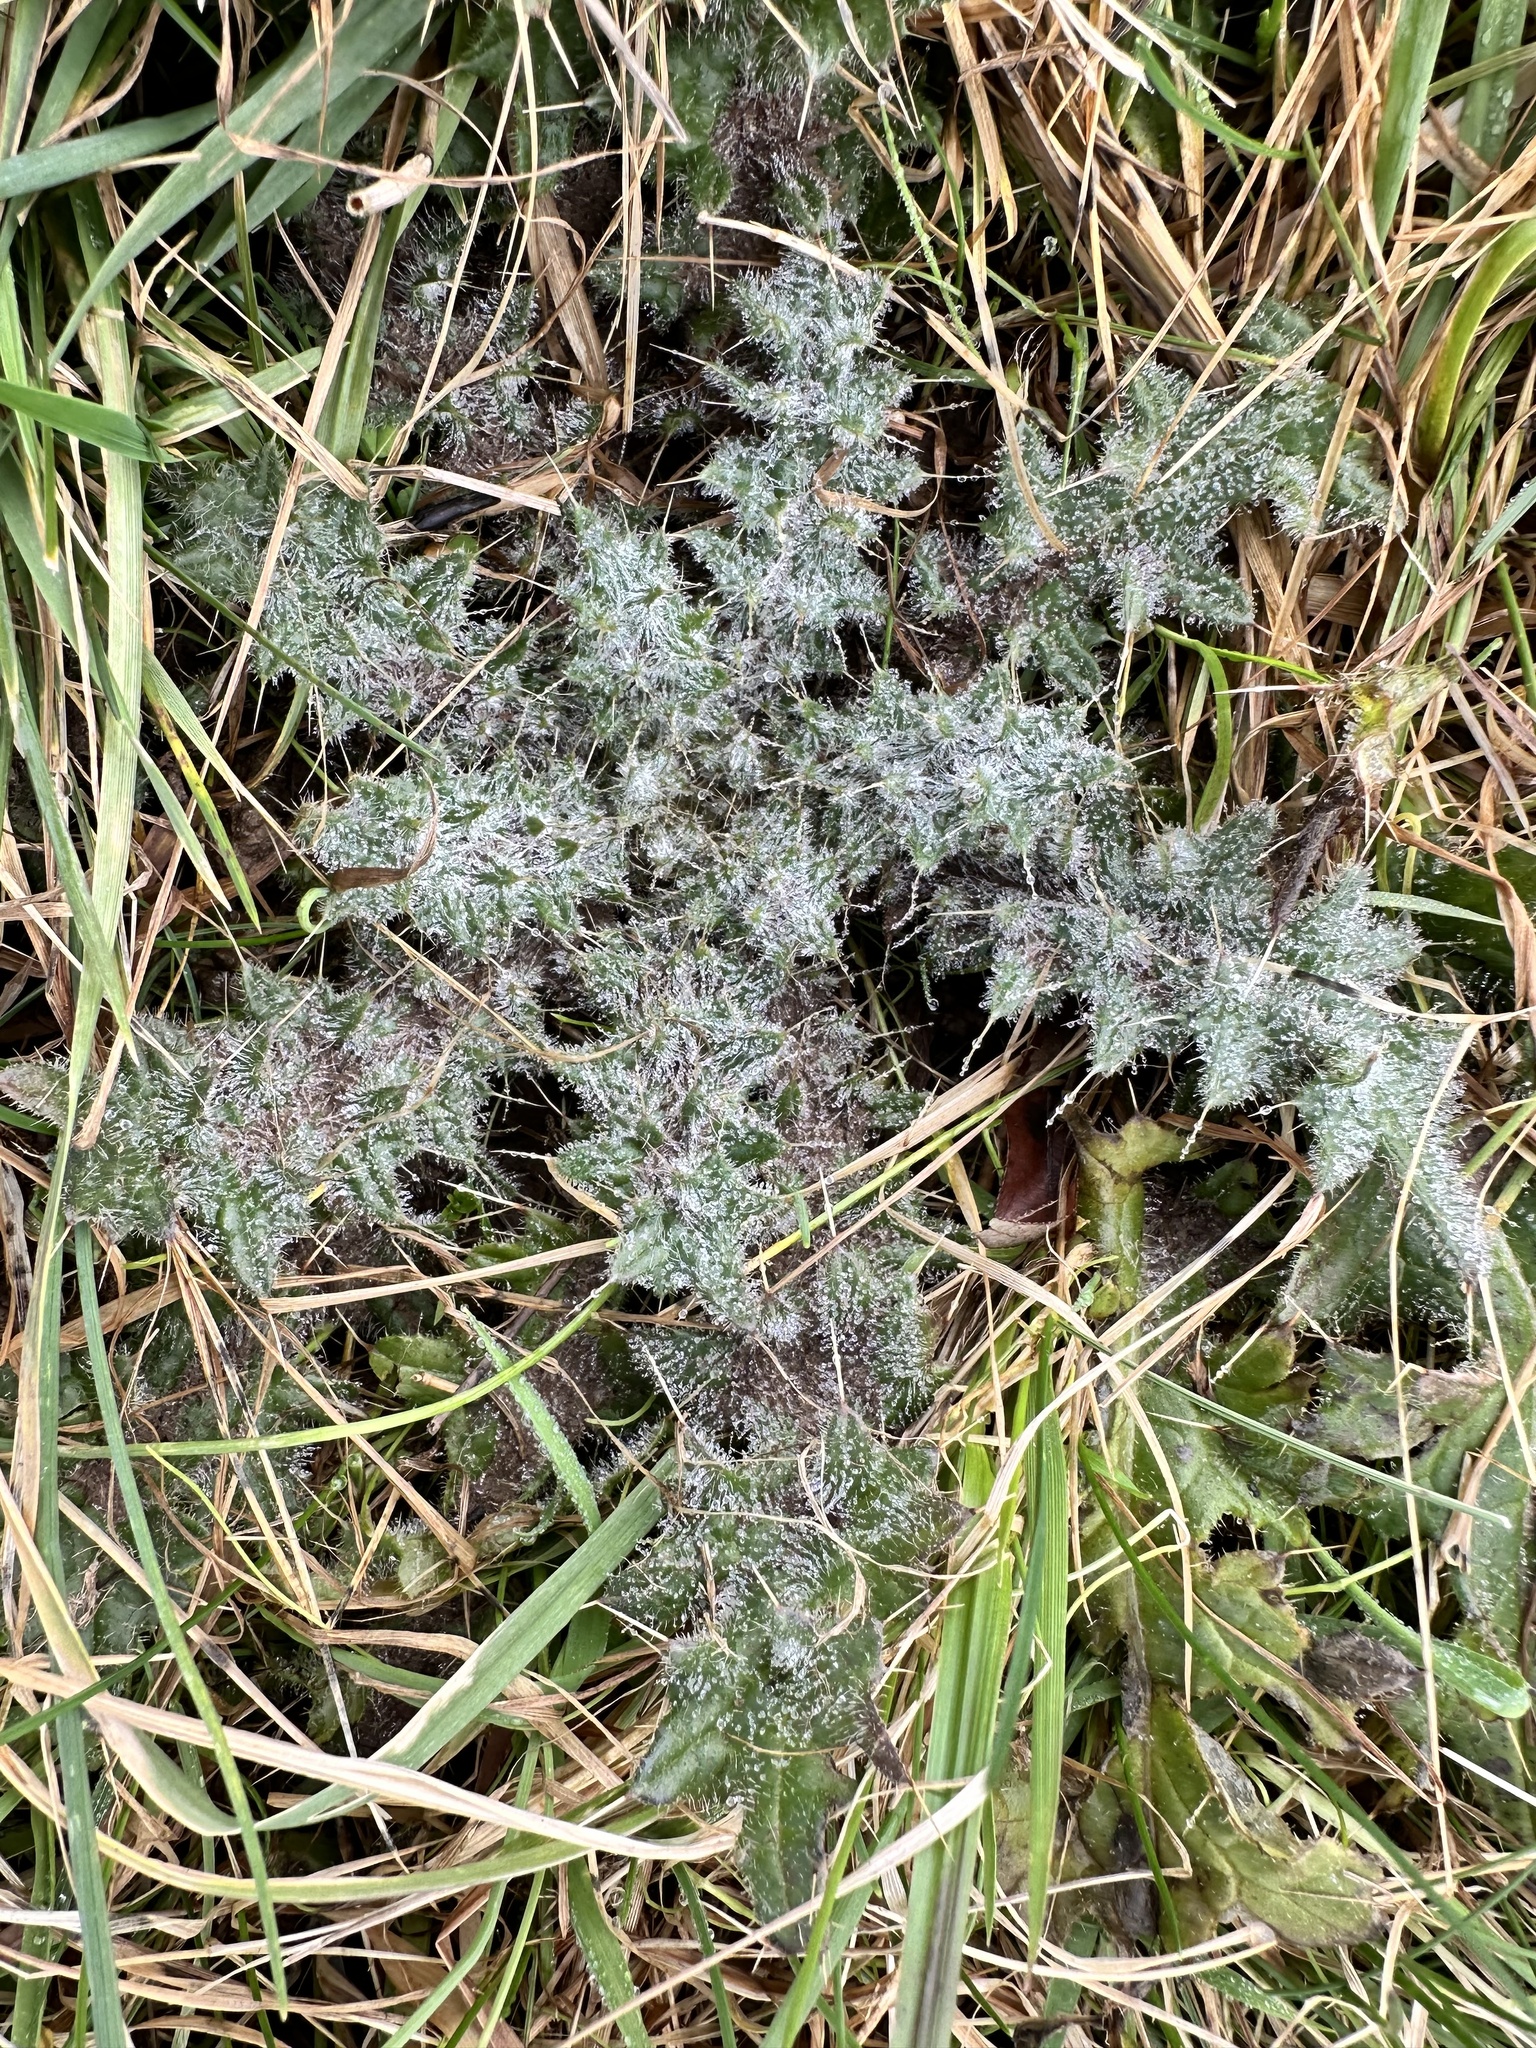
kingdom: Plantae
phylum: Tracheophyta
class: Magnoliopsida
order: Asterales
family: Asteraceae
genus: Cirsium
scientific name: Cirsium vulgare
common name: Bull thistle
